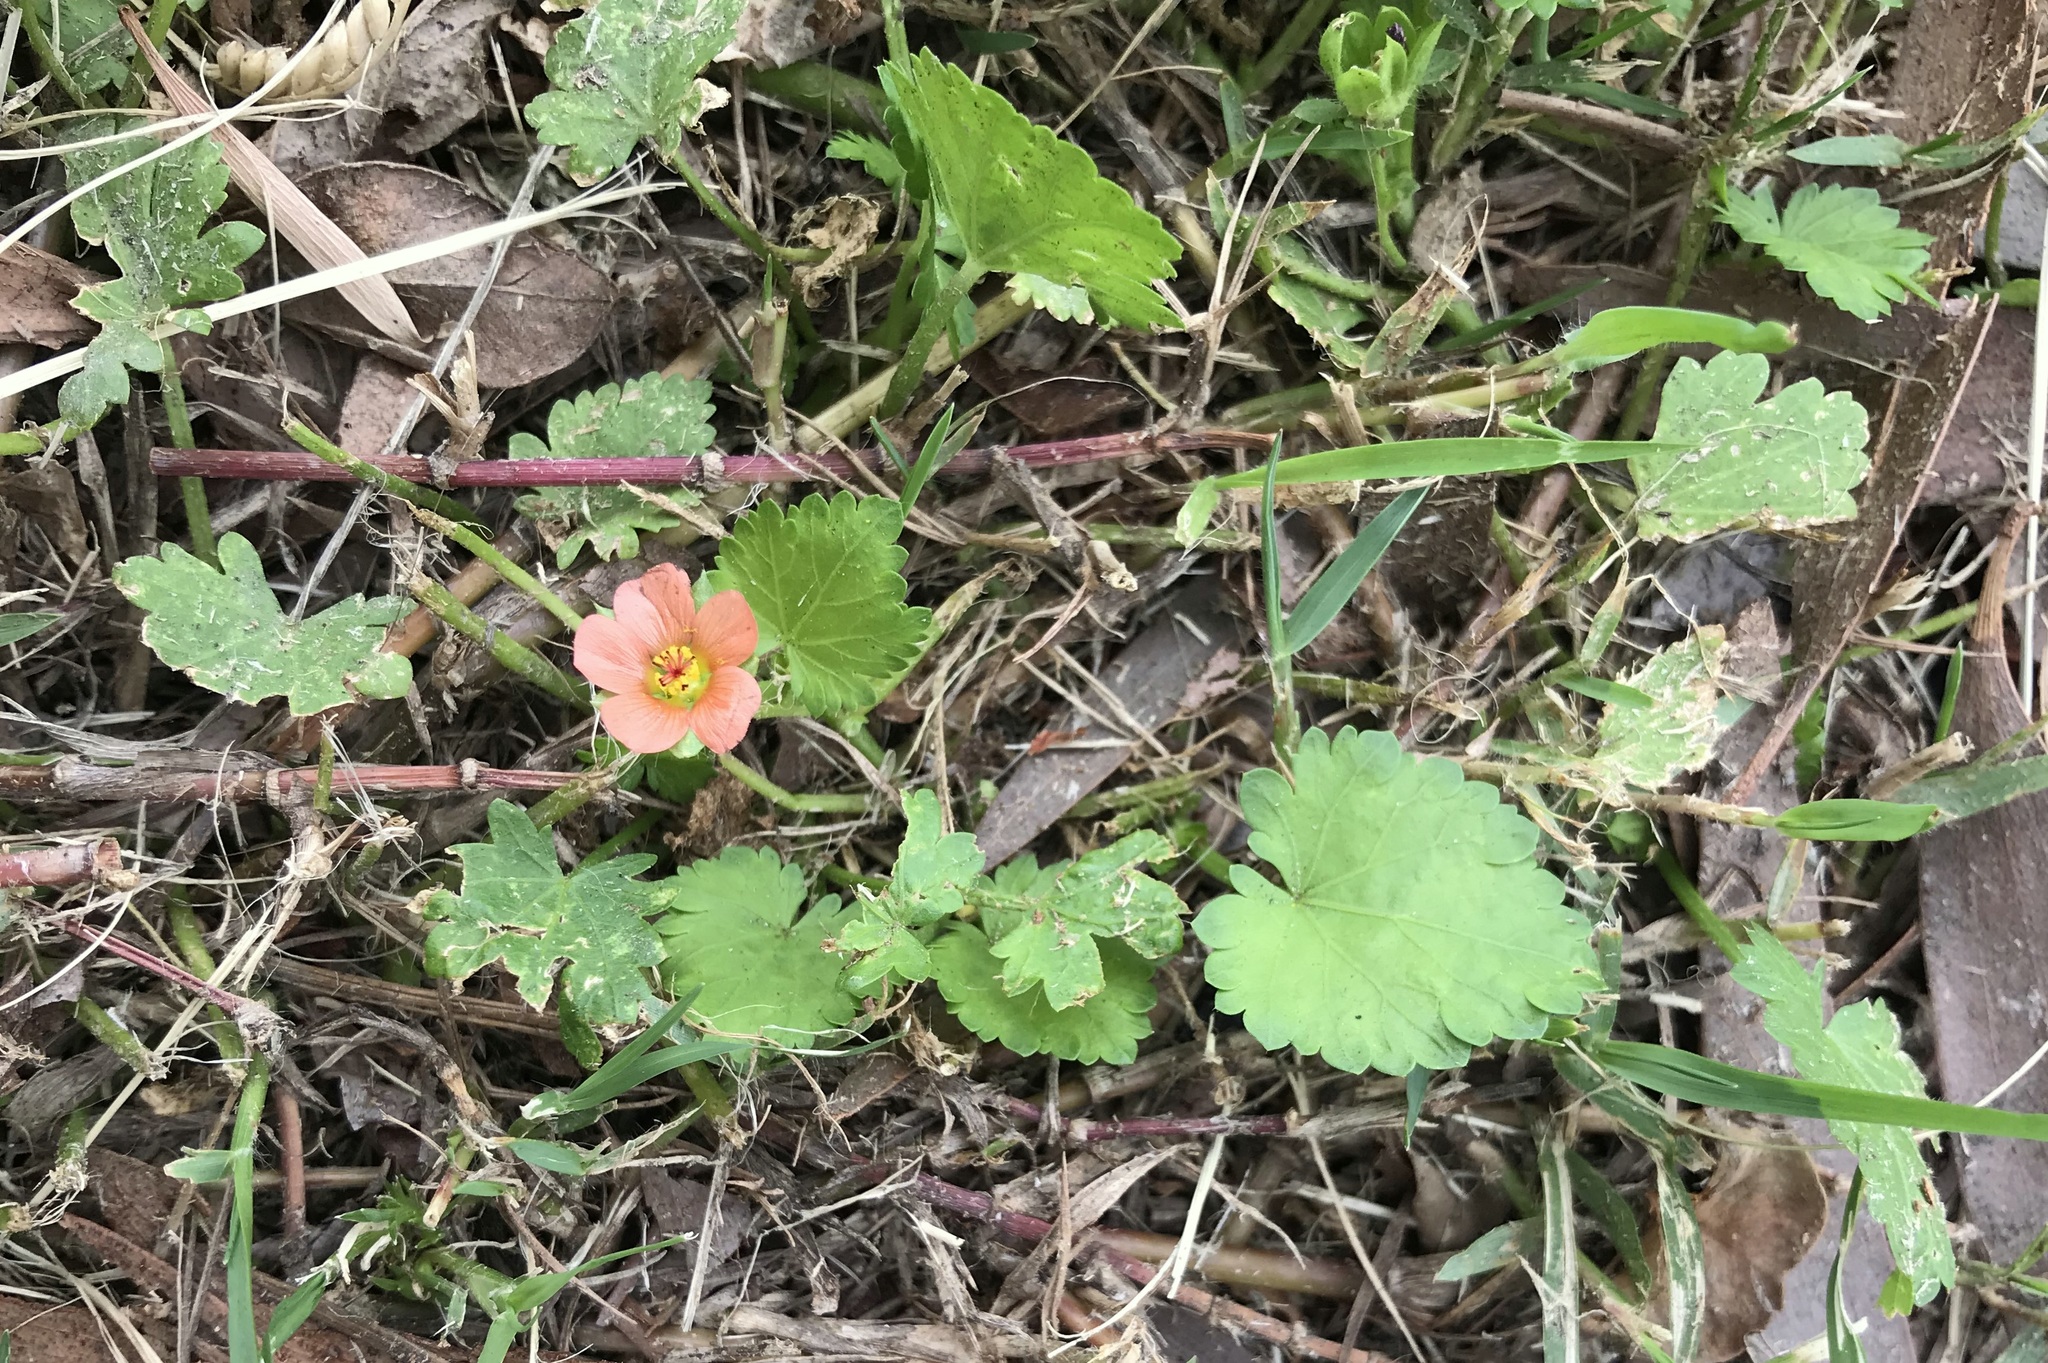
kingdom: Plantae
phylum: Tracheophyta
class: Magnoliopsida
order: Malvales
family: Malvaceae
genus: Modiola
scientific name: Modiola caroliniana
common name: Carolina bristlemallow
